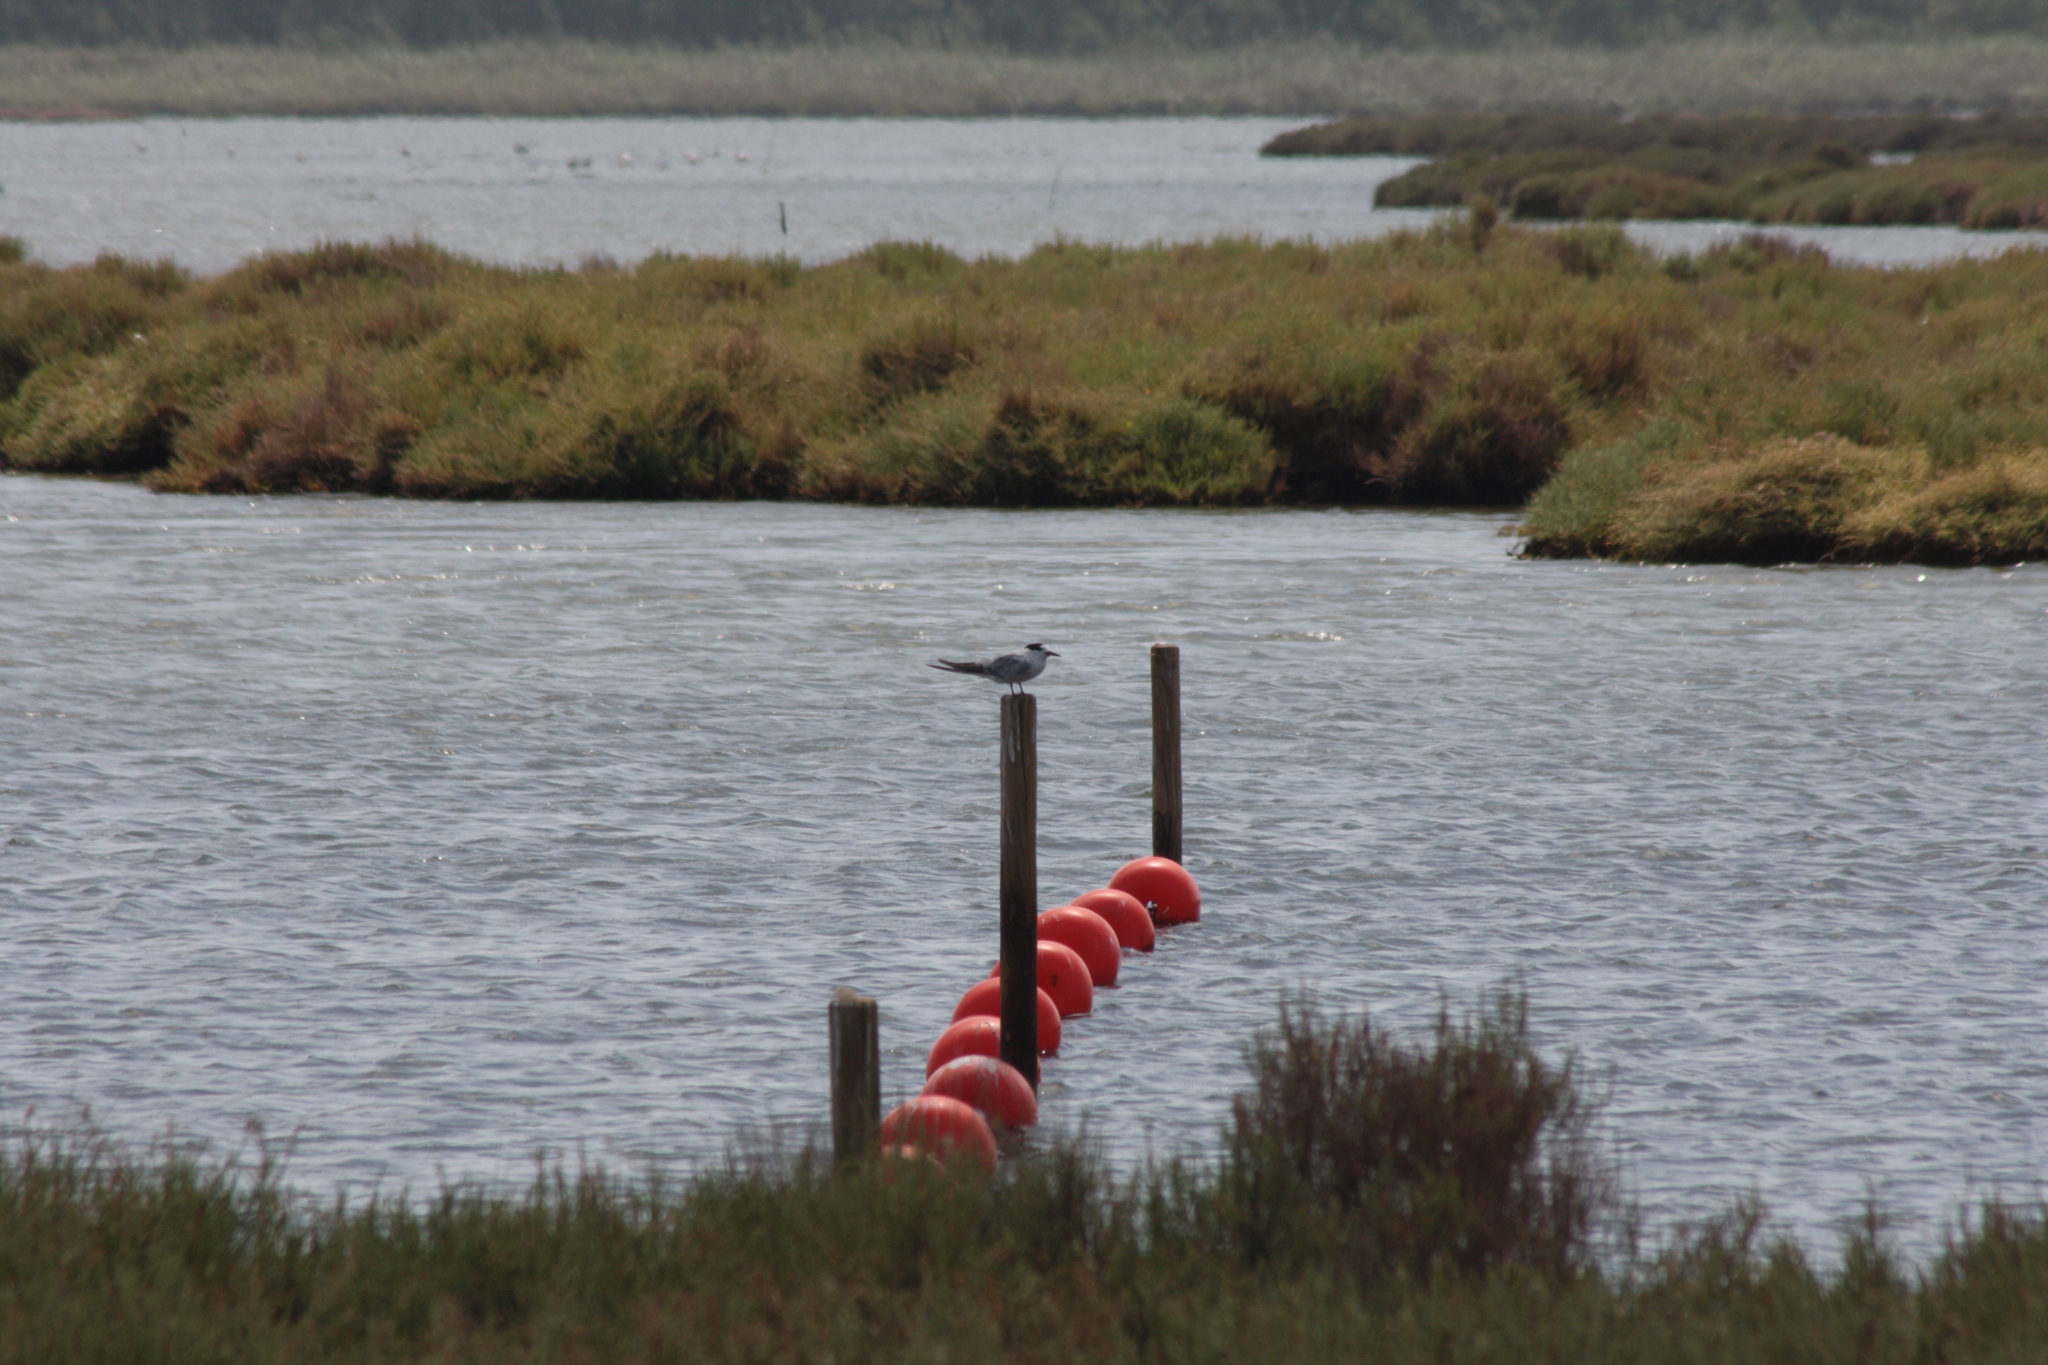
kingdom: Animalia
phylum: Chordata
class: Aves
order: Charadriiformes
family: Laridae
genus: Sterna
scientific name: Sterna hirundo
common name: Common tern
